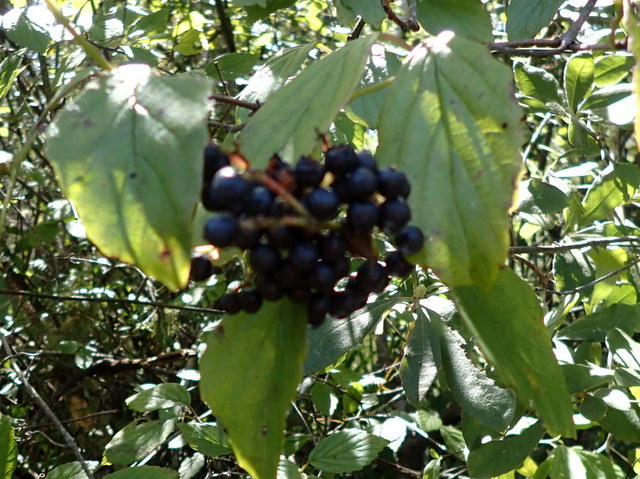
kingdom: Plantae
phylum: Tracheophyta
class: Magnoliopsida
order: Dipsacales
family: Viburnaceae
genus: Viburnum
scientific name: Viburnum scabrellum
